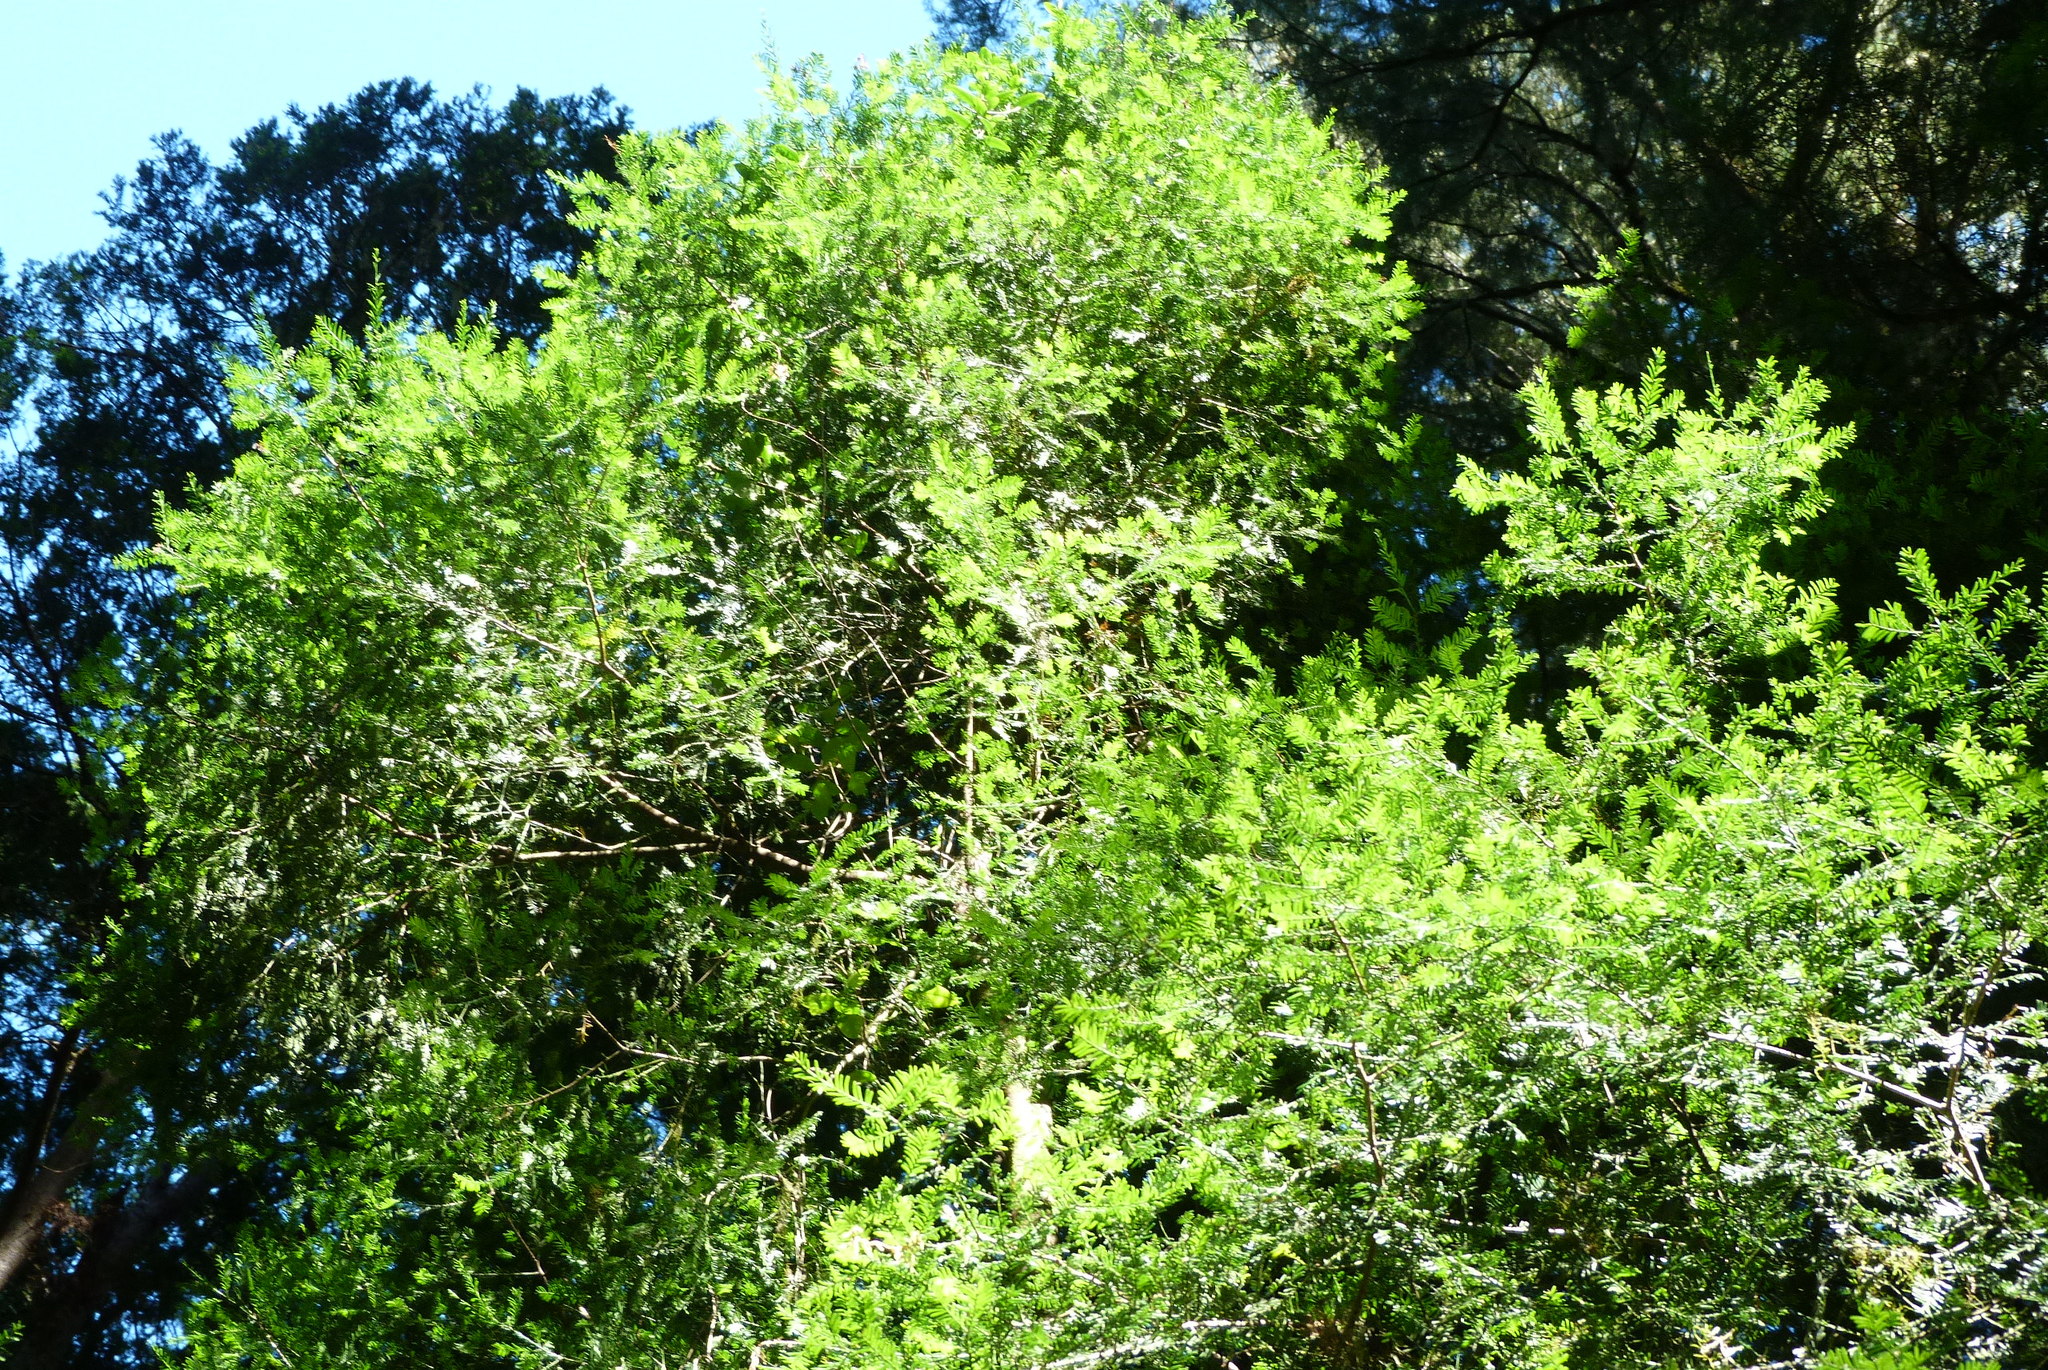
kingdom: Plantae
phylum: Tracheophyta
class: Pinopsida
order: Pinales
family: Podocarpaceae
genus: Prumnopitys
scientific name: Prumnopitys taxifolia
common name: Matai
